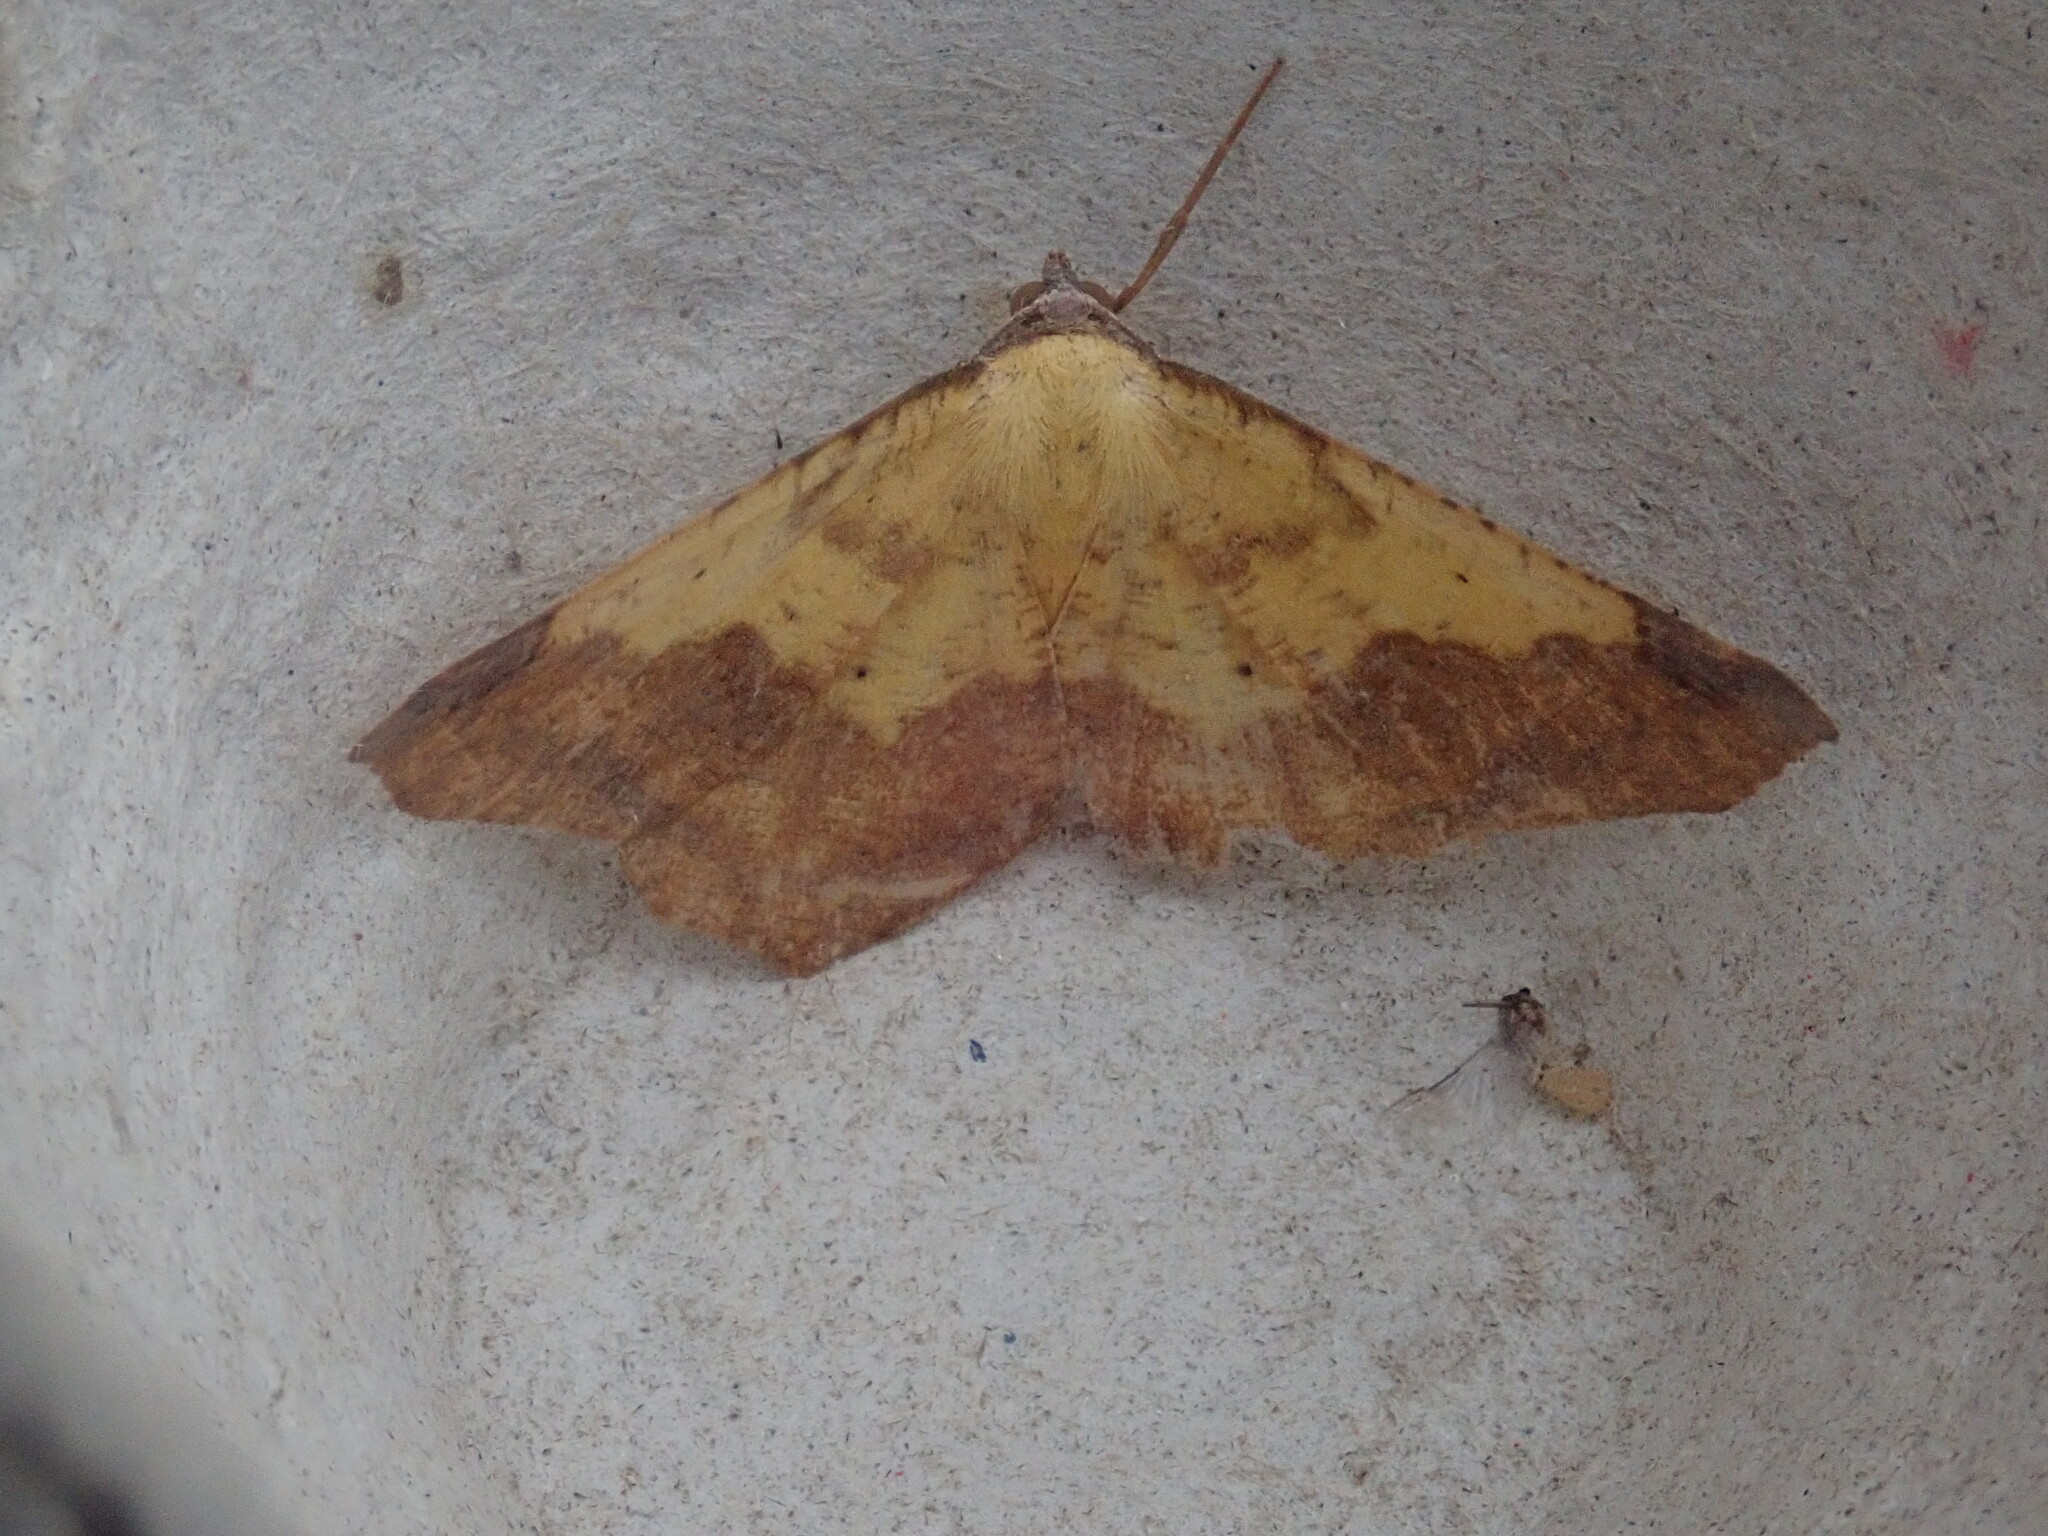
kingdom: Animalia
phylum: Arthropoda
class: Insecta
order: Lepidoptera
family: Geometridae
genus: Antepione
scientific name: Antepione thisoaria
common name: Variable antipione
